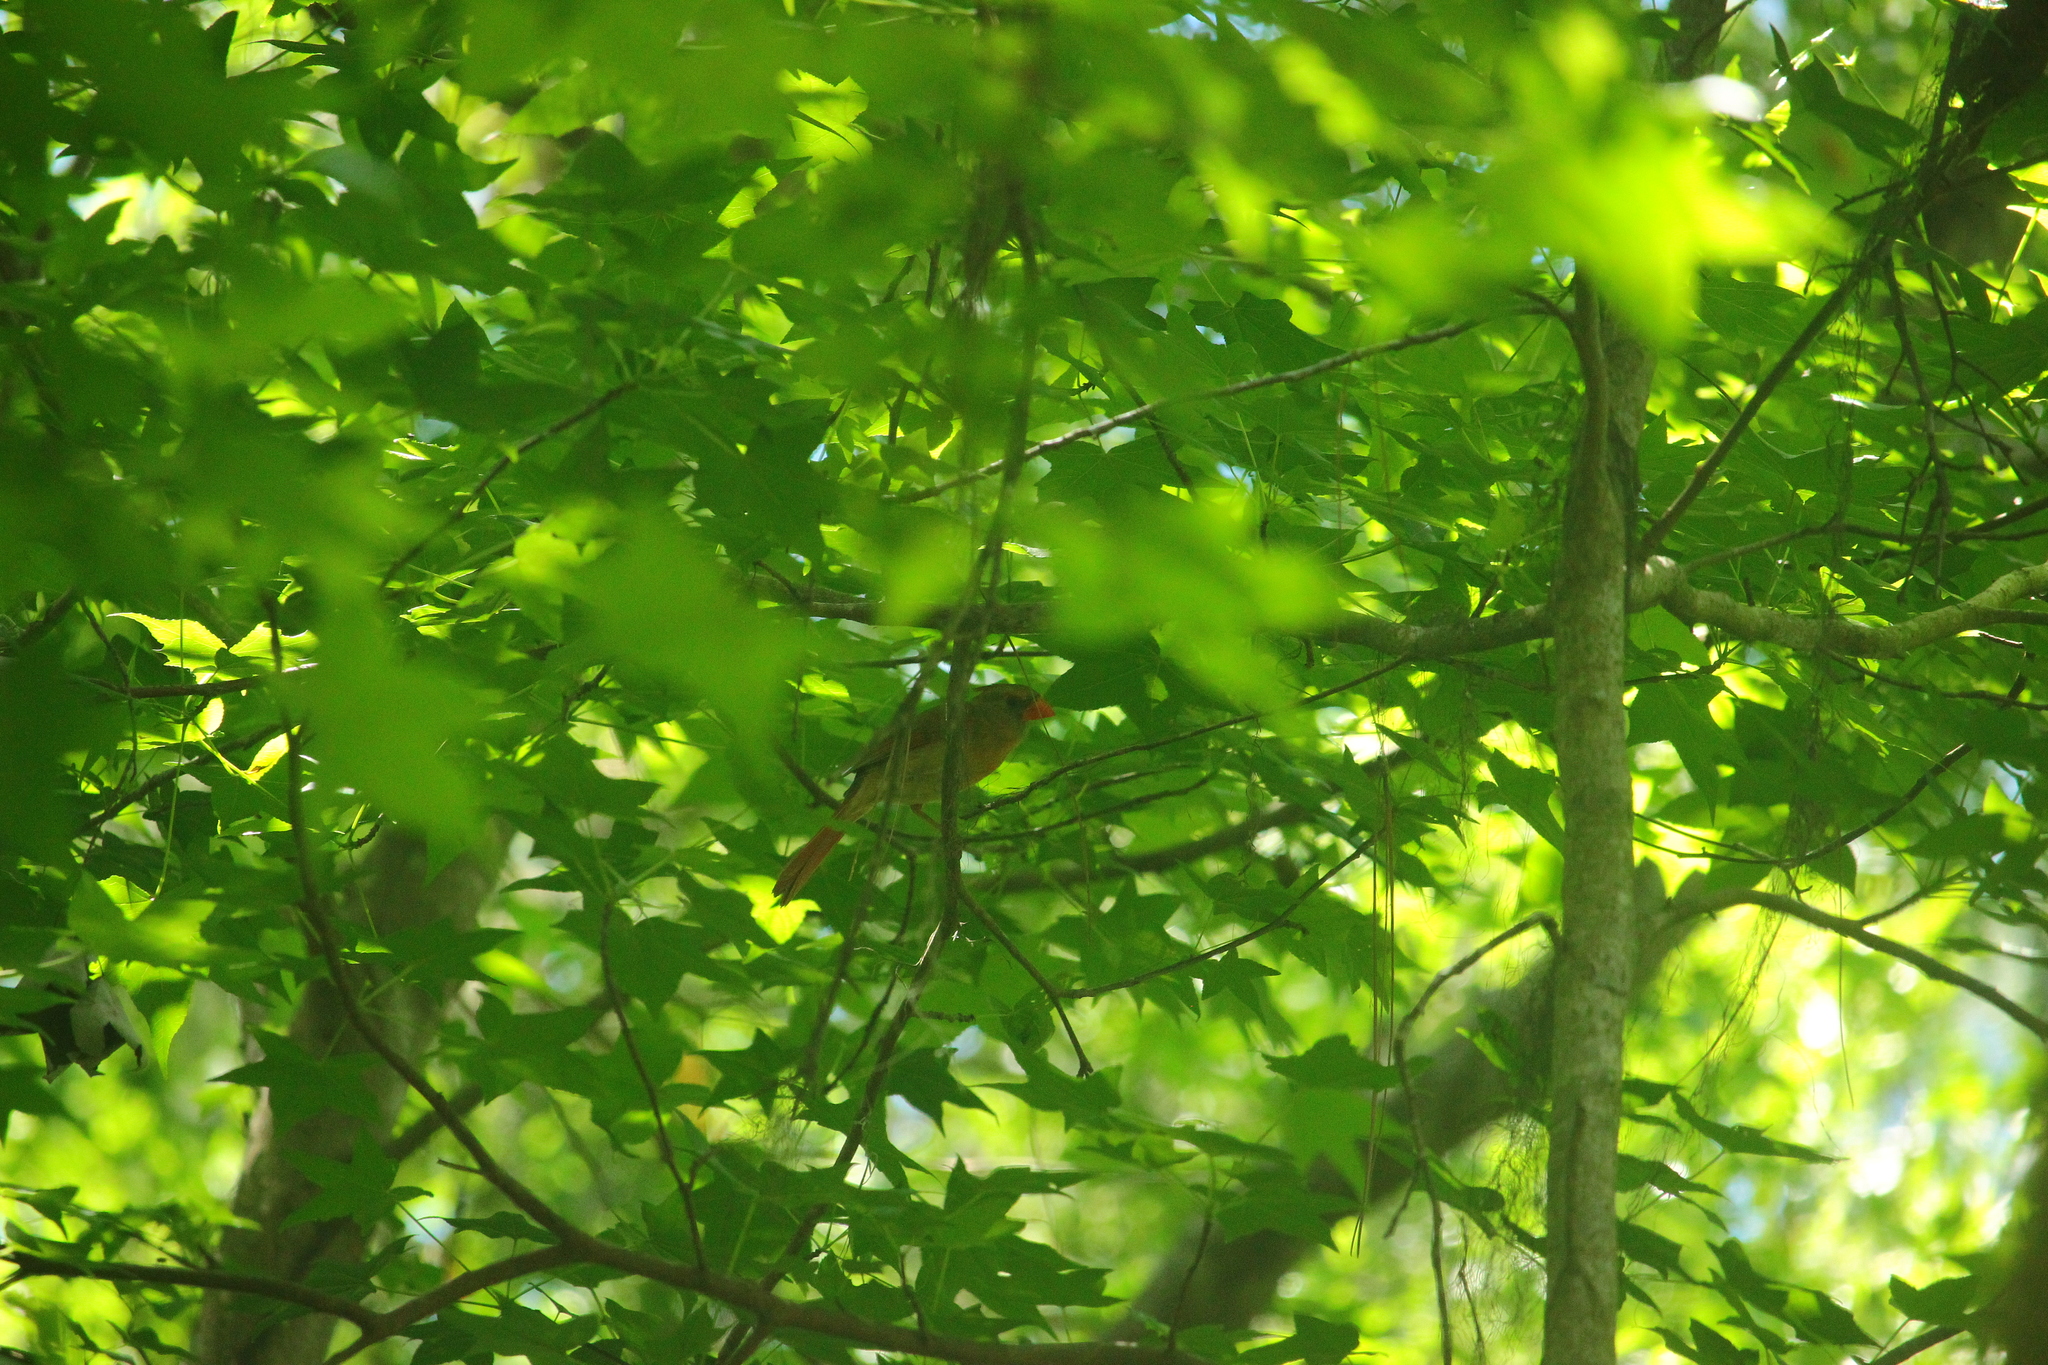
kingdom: Animalia
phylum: Chordata
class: Aves
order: Passeriformes
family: Cardinalidae
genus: Cardinalis
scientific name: Cardinalis cardinalis
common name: Northern cardinal
